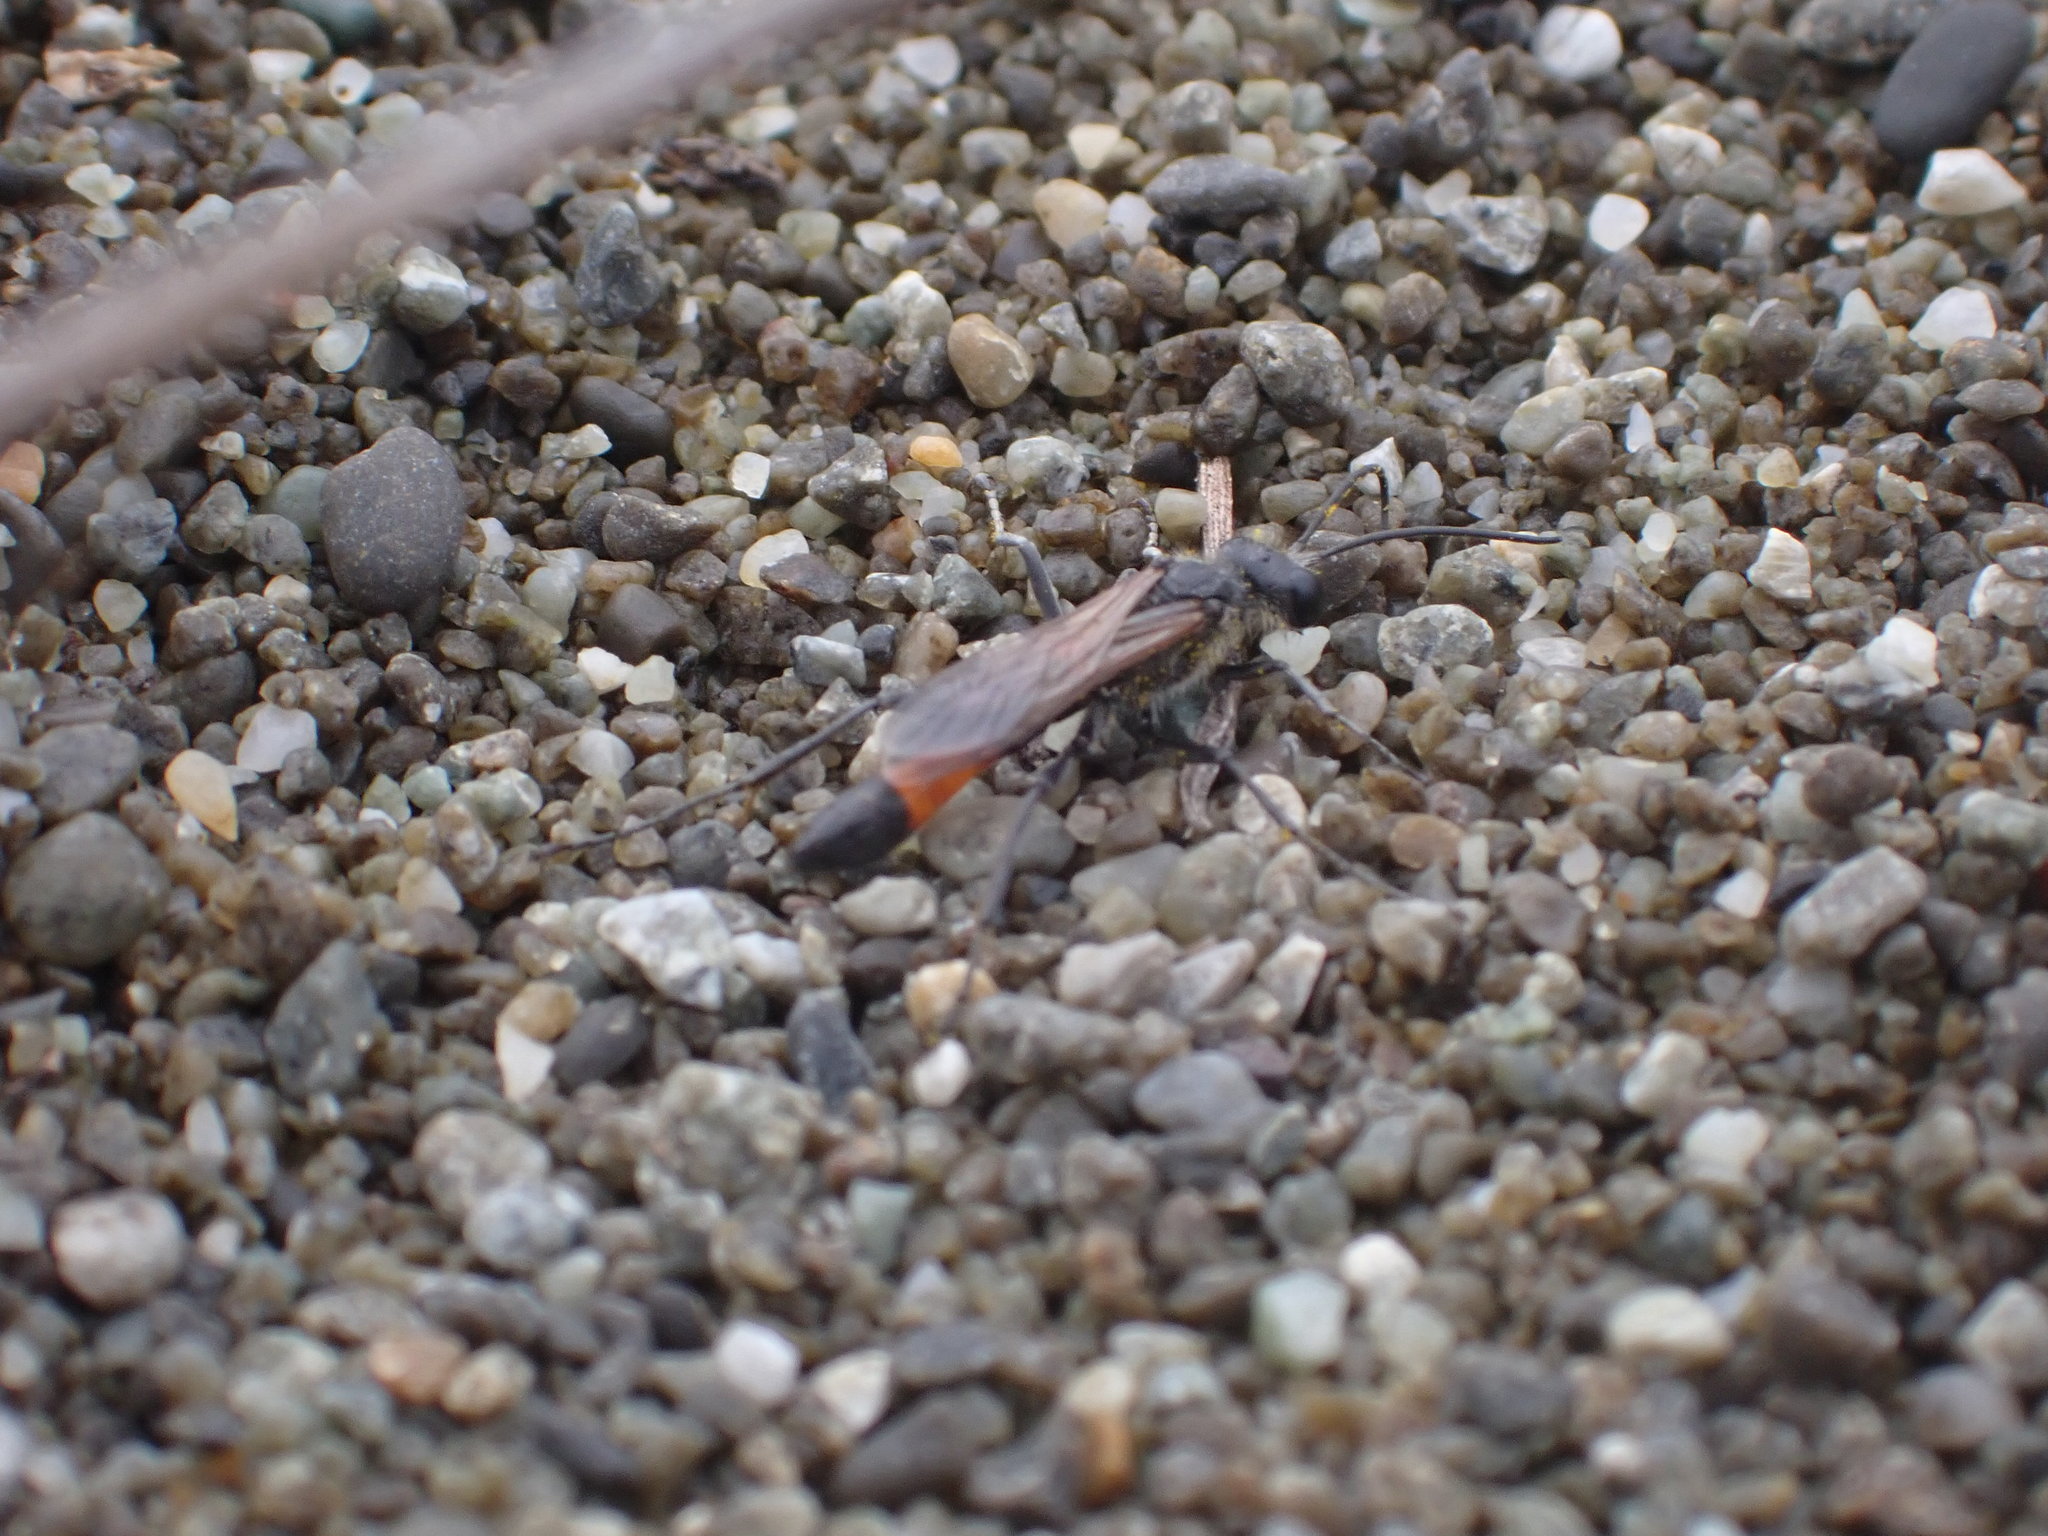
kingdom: Animalia
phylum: Arthropoda
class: Insecta
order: Hymenoptera
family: Sphecidae
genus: Podalonia
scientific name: Podalonia tydei
